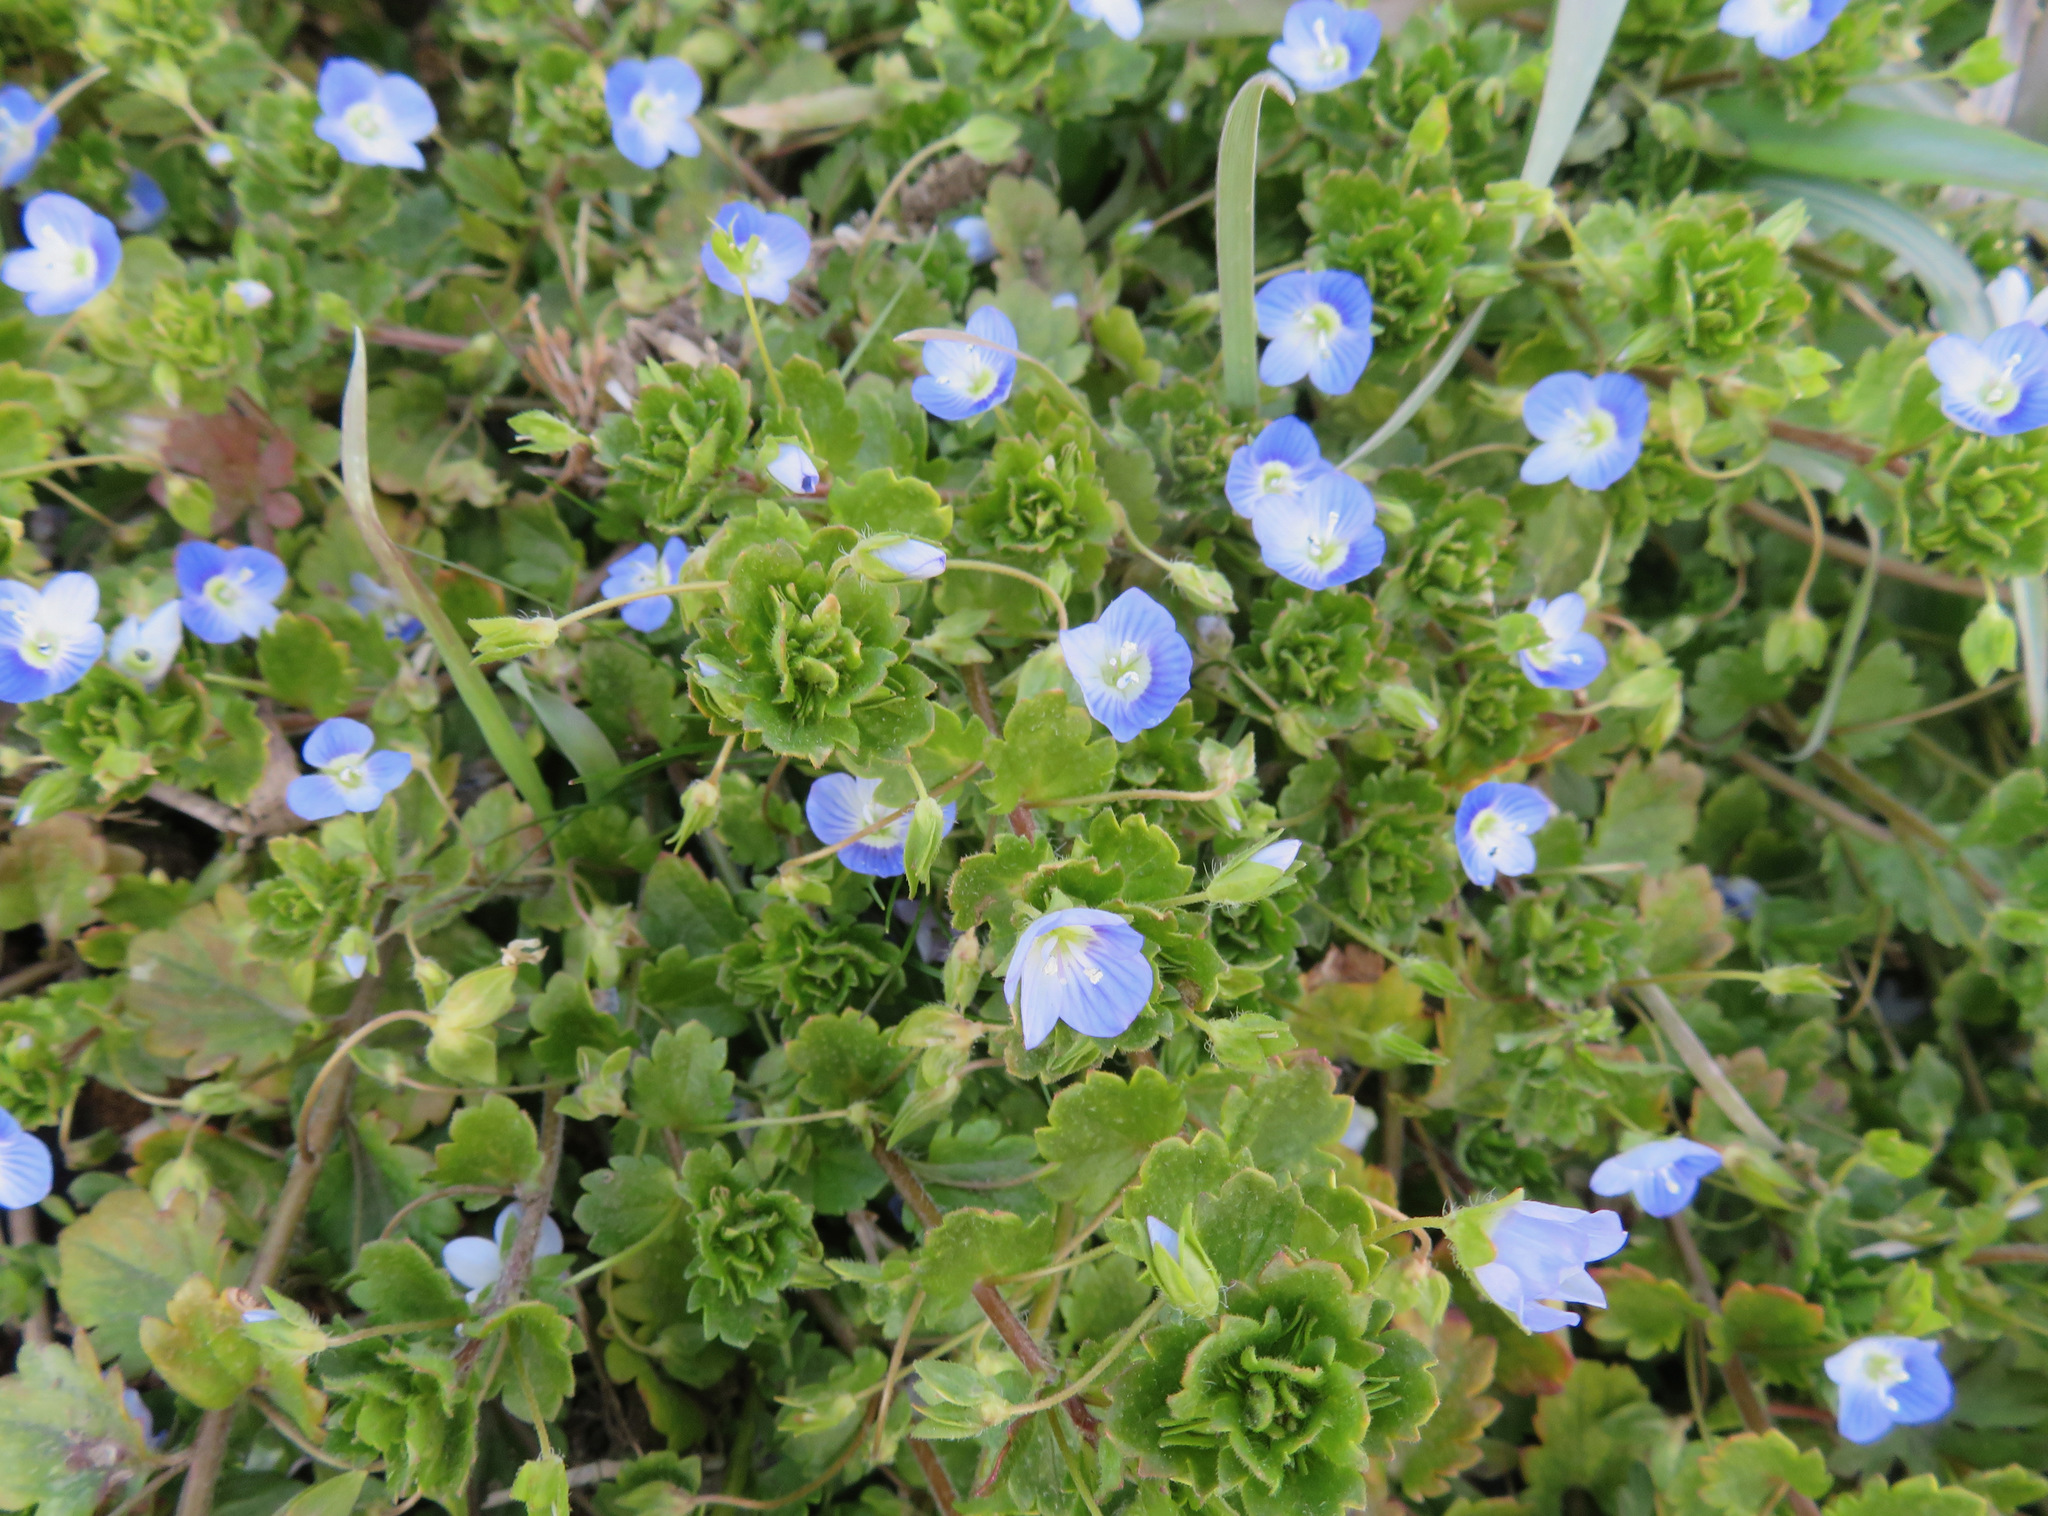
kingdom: Plantae
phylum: Tracheophyta
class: Magnoliopsida
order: Lamiales
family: Plantaginaceae
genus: Veronica
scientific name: Veronica persica
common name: Common field-speedwell
